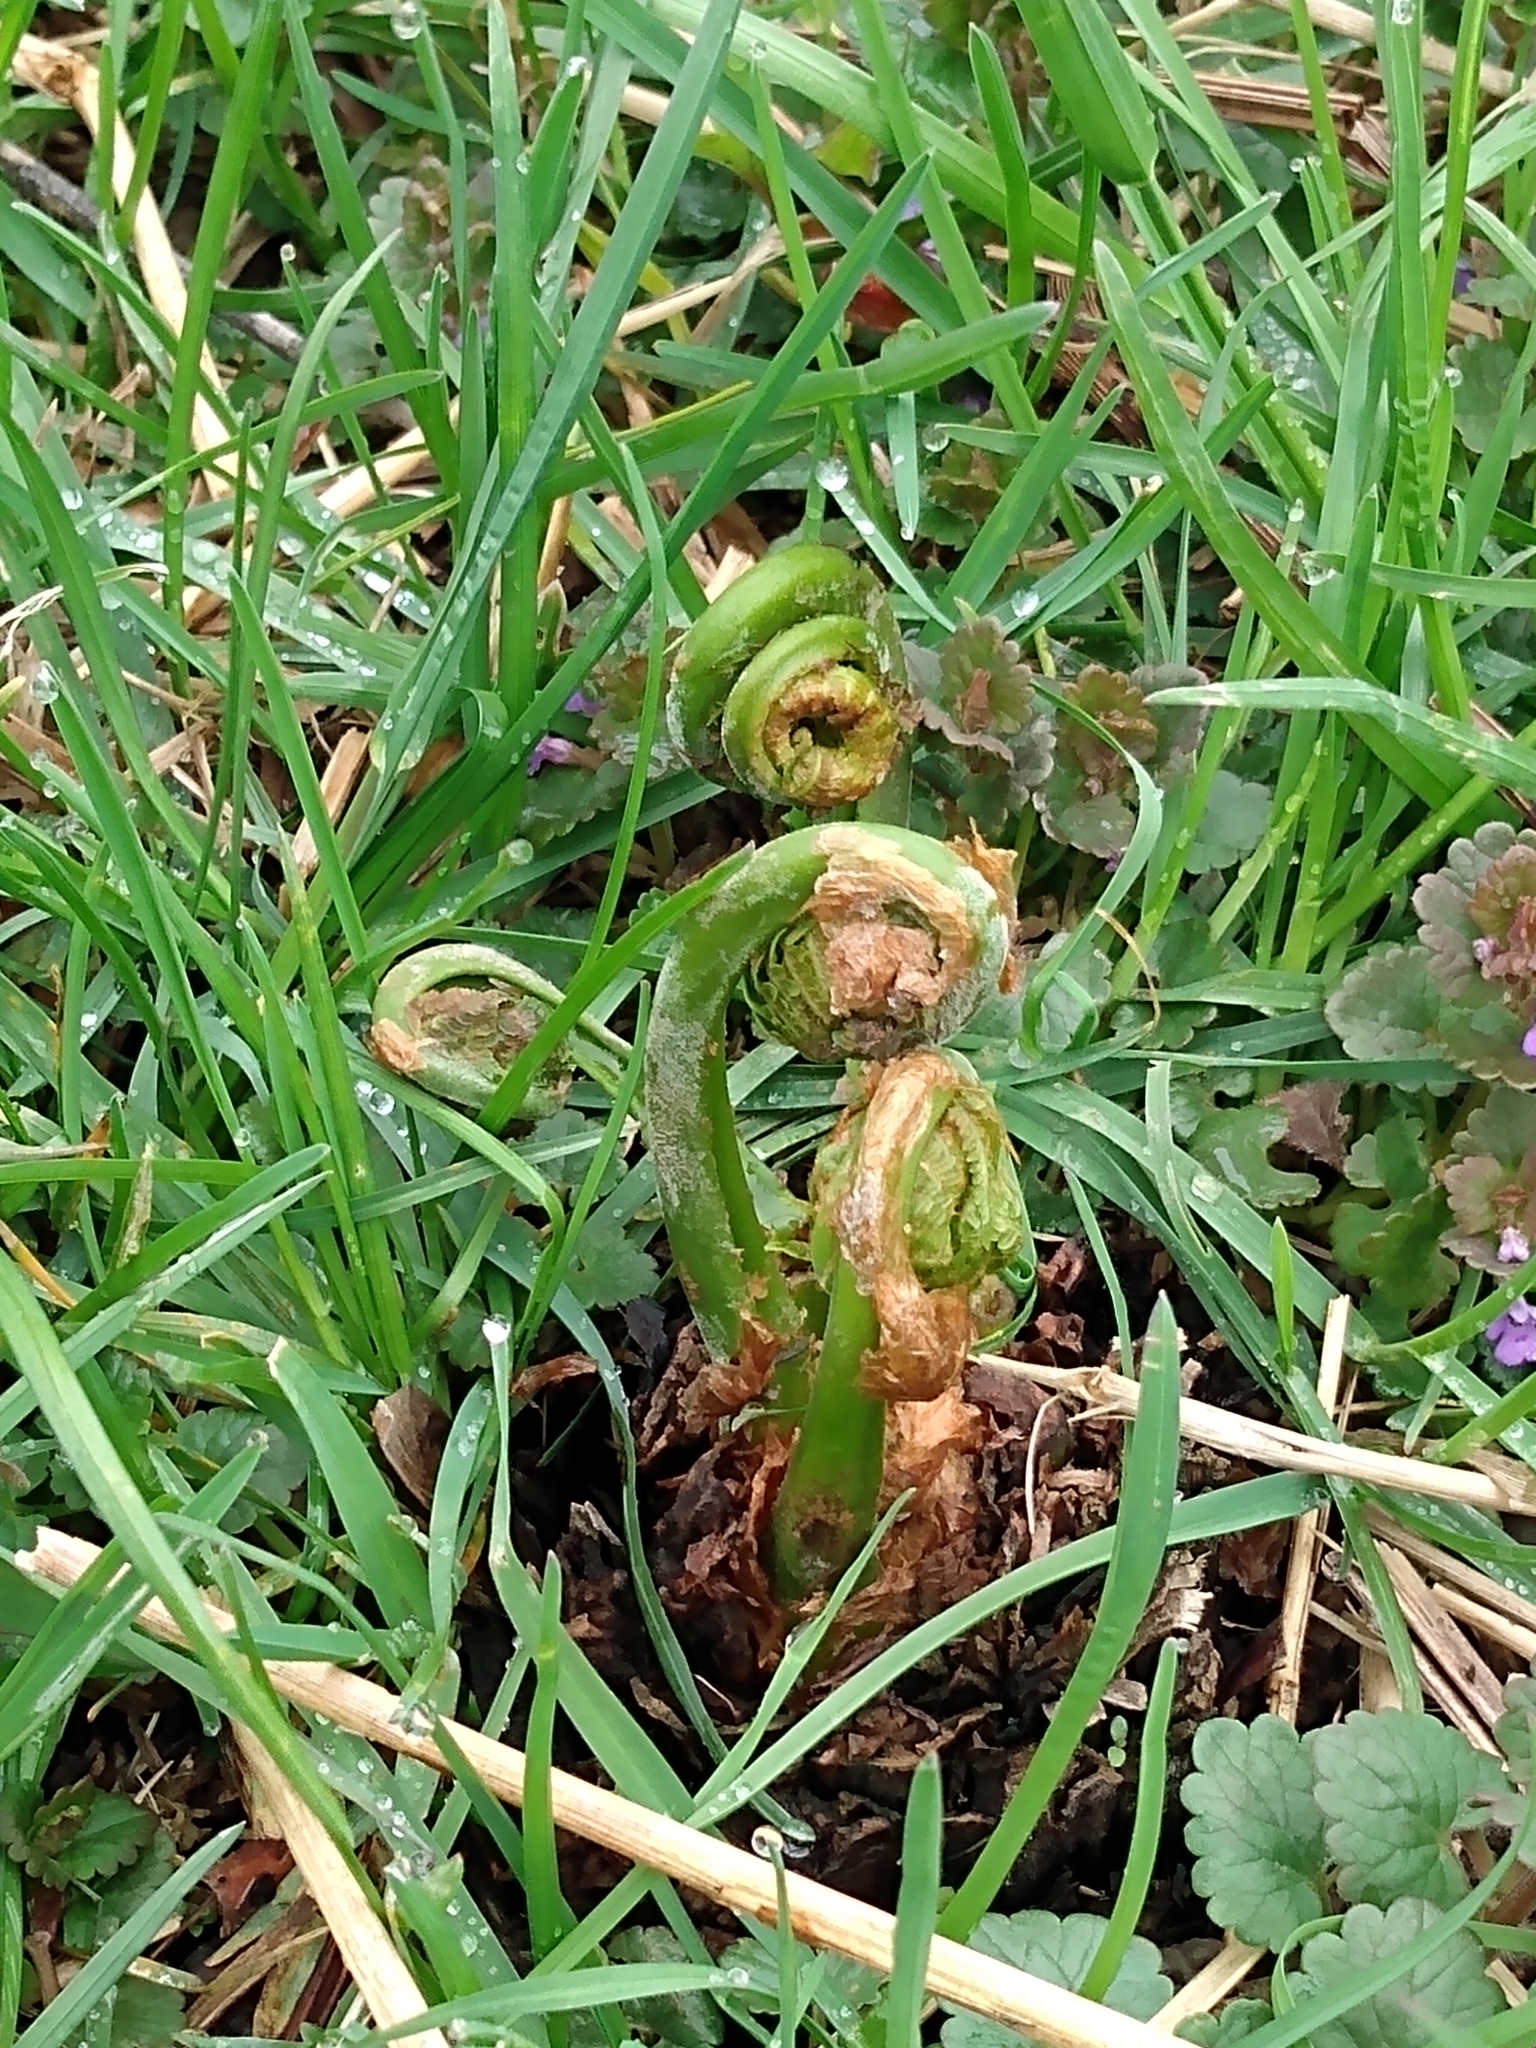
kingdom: Plantae
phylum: Tracheophyta
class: Polypodiopsida
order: Polypodiales
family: Onocleaceae
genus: Matteuccia
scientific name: Matteuccia struthiopteris
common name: Ostrich fern
